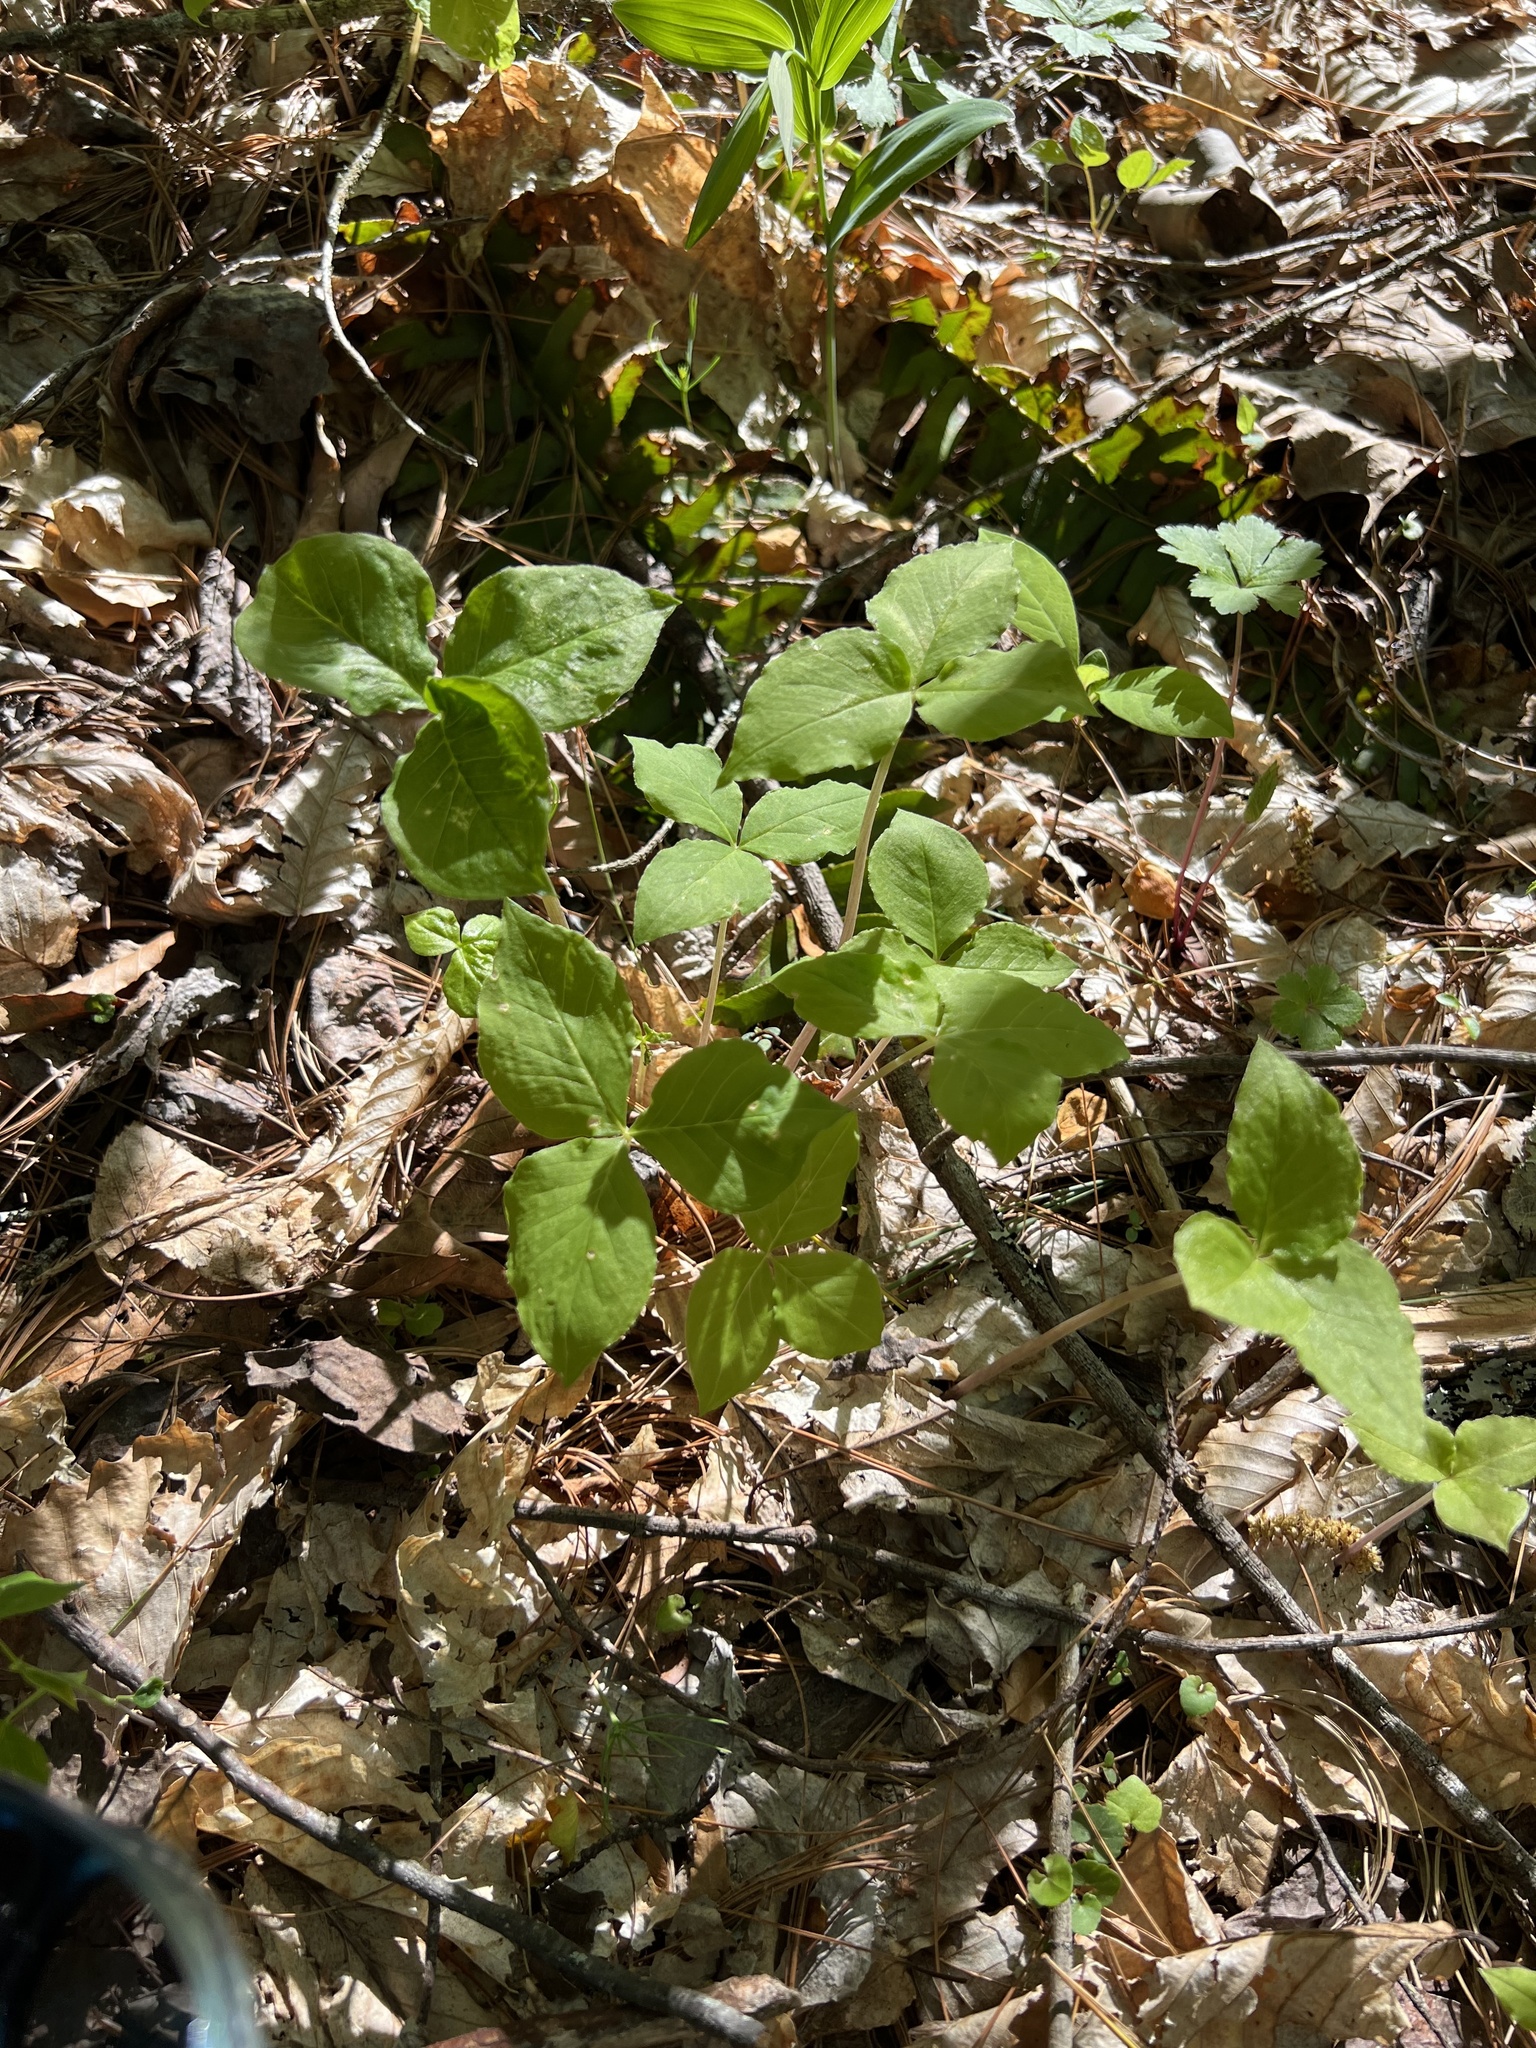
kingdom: Plantae
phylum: Tracheophyta
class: Liliopsida
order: Alismatales
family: Araceae
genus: Arisaema
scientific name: Arisaema triphyllum
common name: Jack-in-the-pulpit
